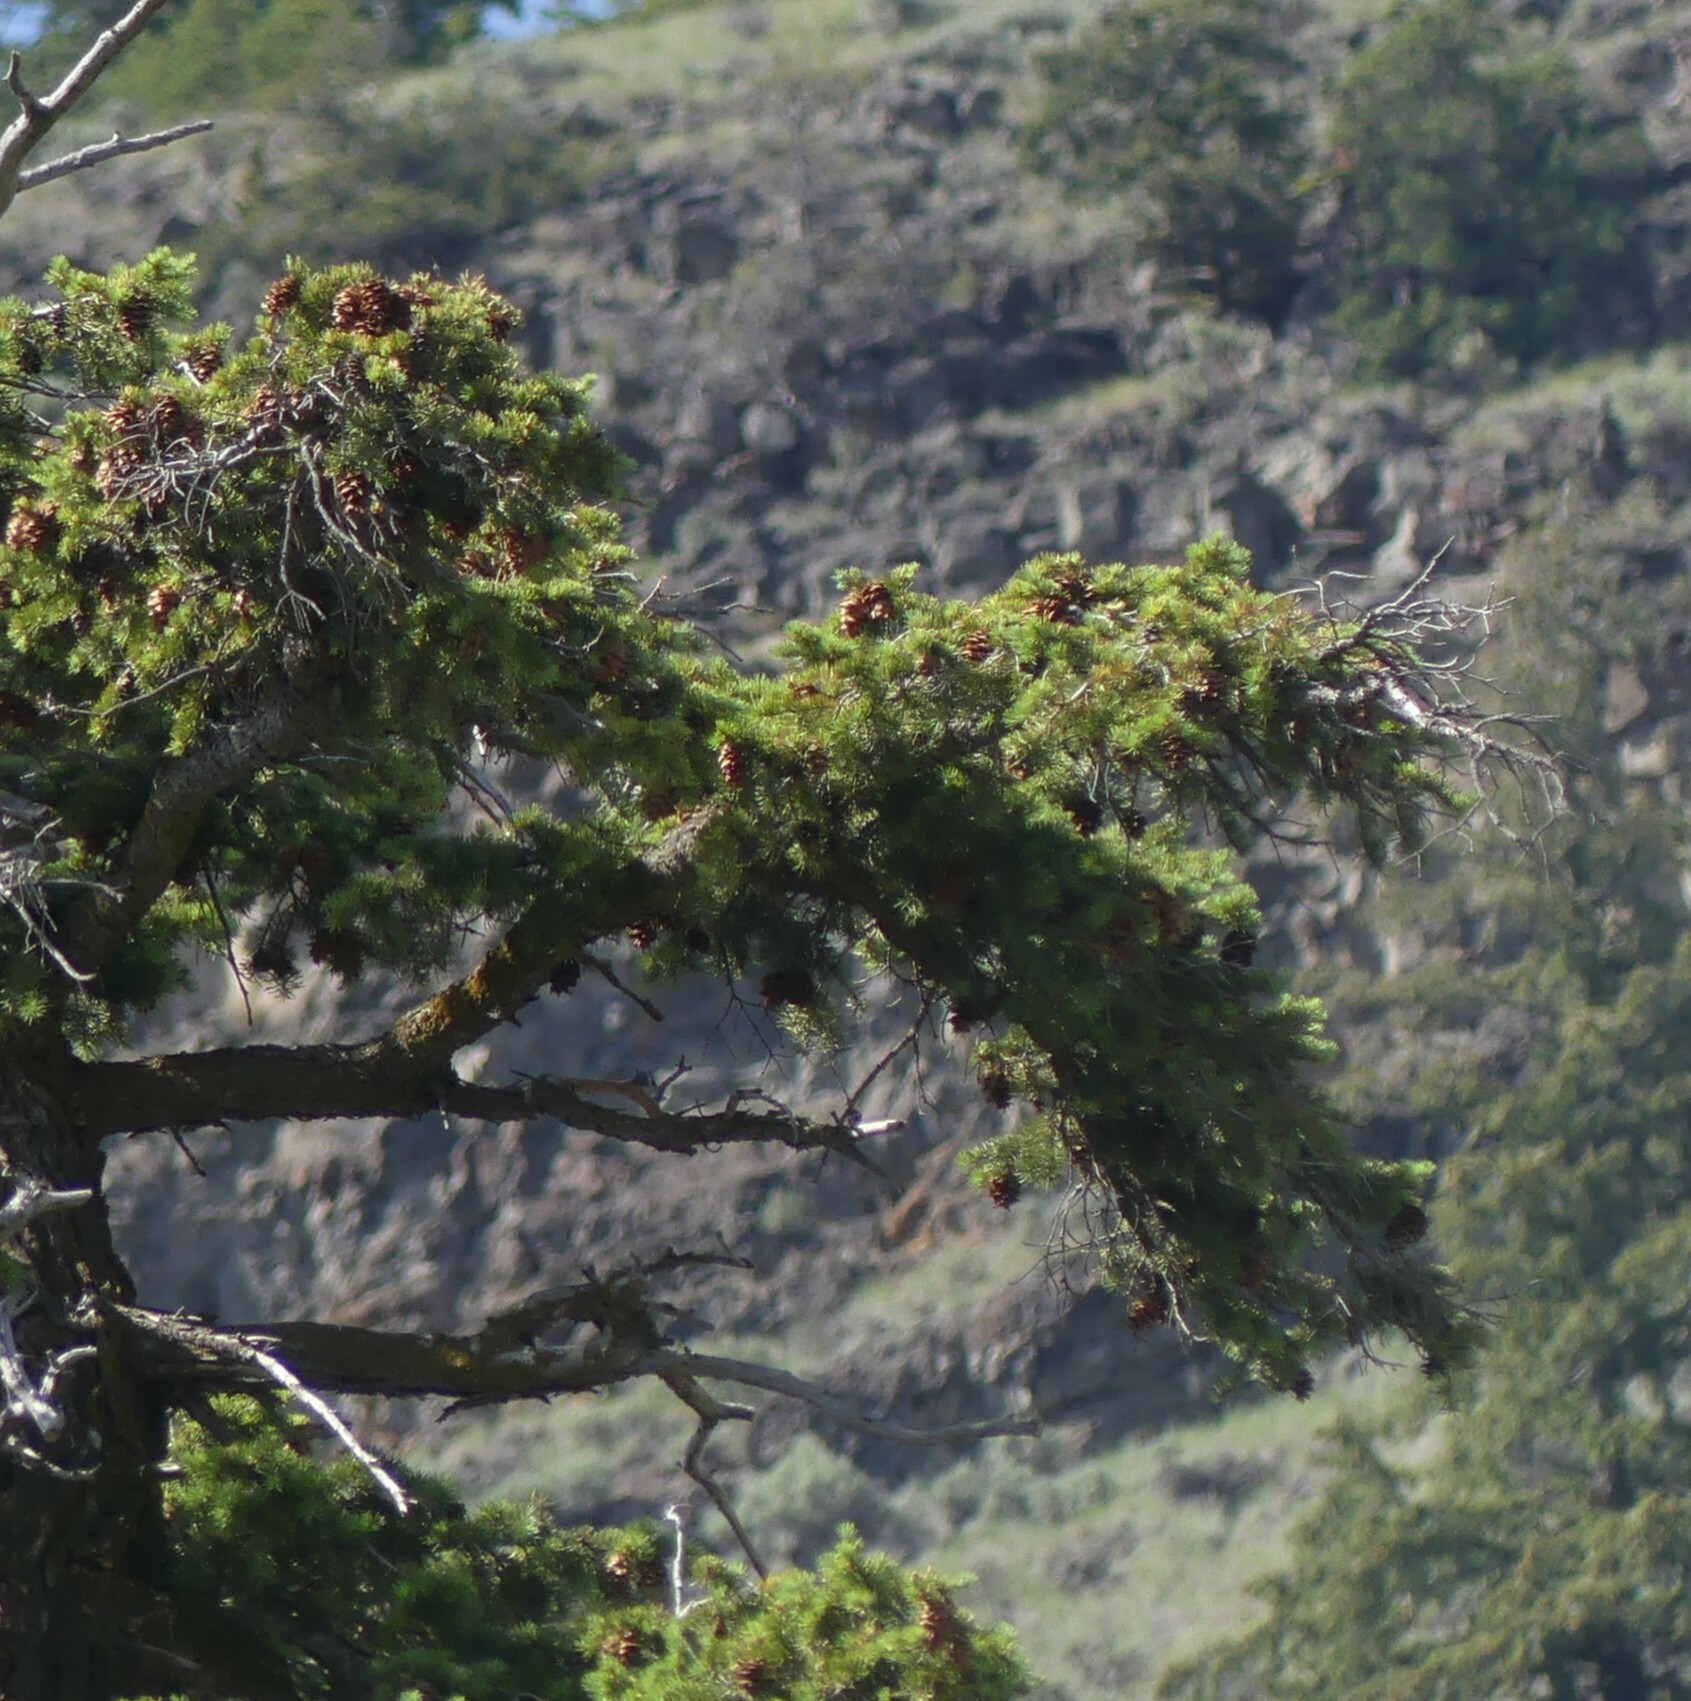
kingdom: Plantae
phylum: Tracheophyta
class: Pinopsida
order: Pinales
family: Pinaceae
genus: Pseudotsuga
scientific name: Pseudotsuga menziesii
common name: Douglas fir
